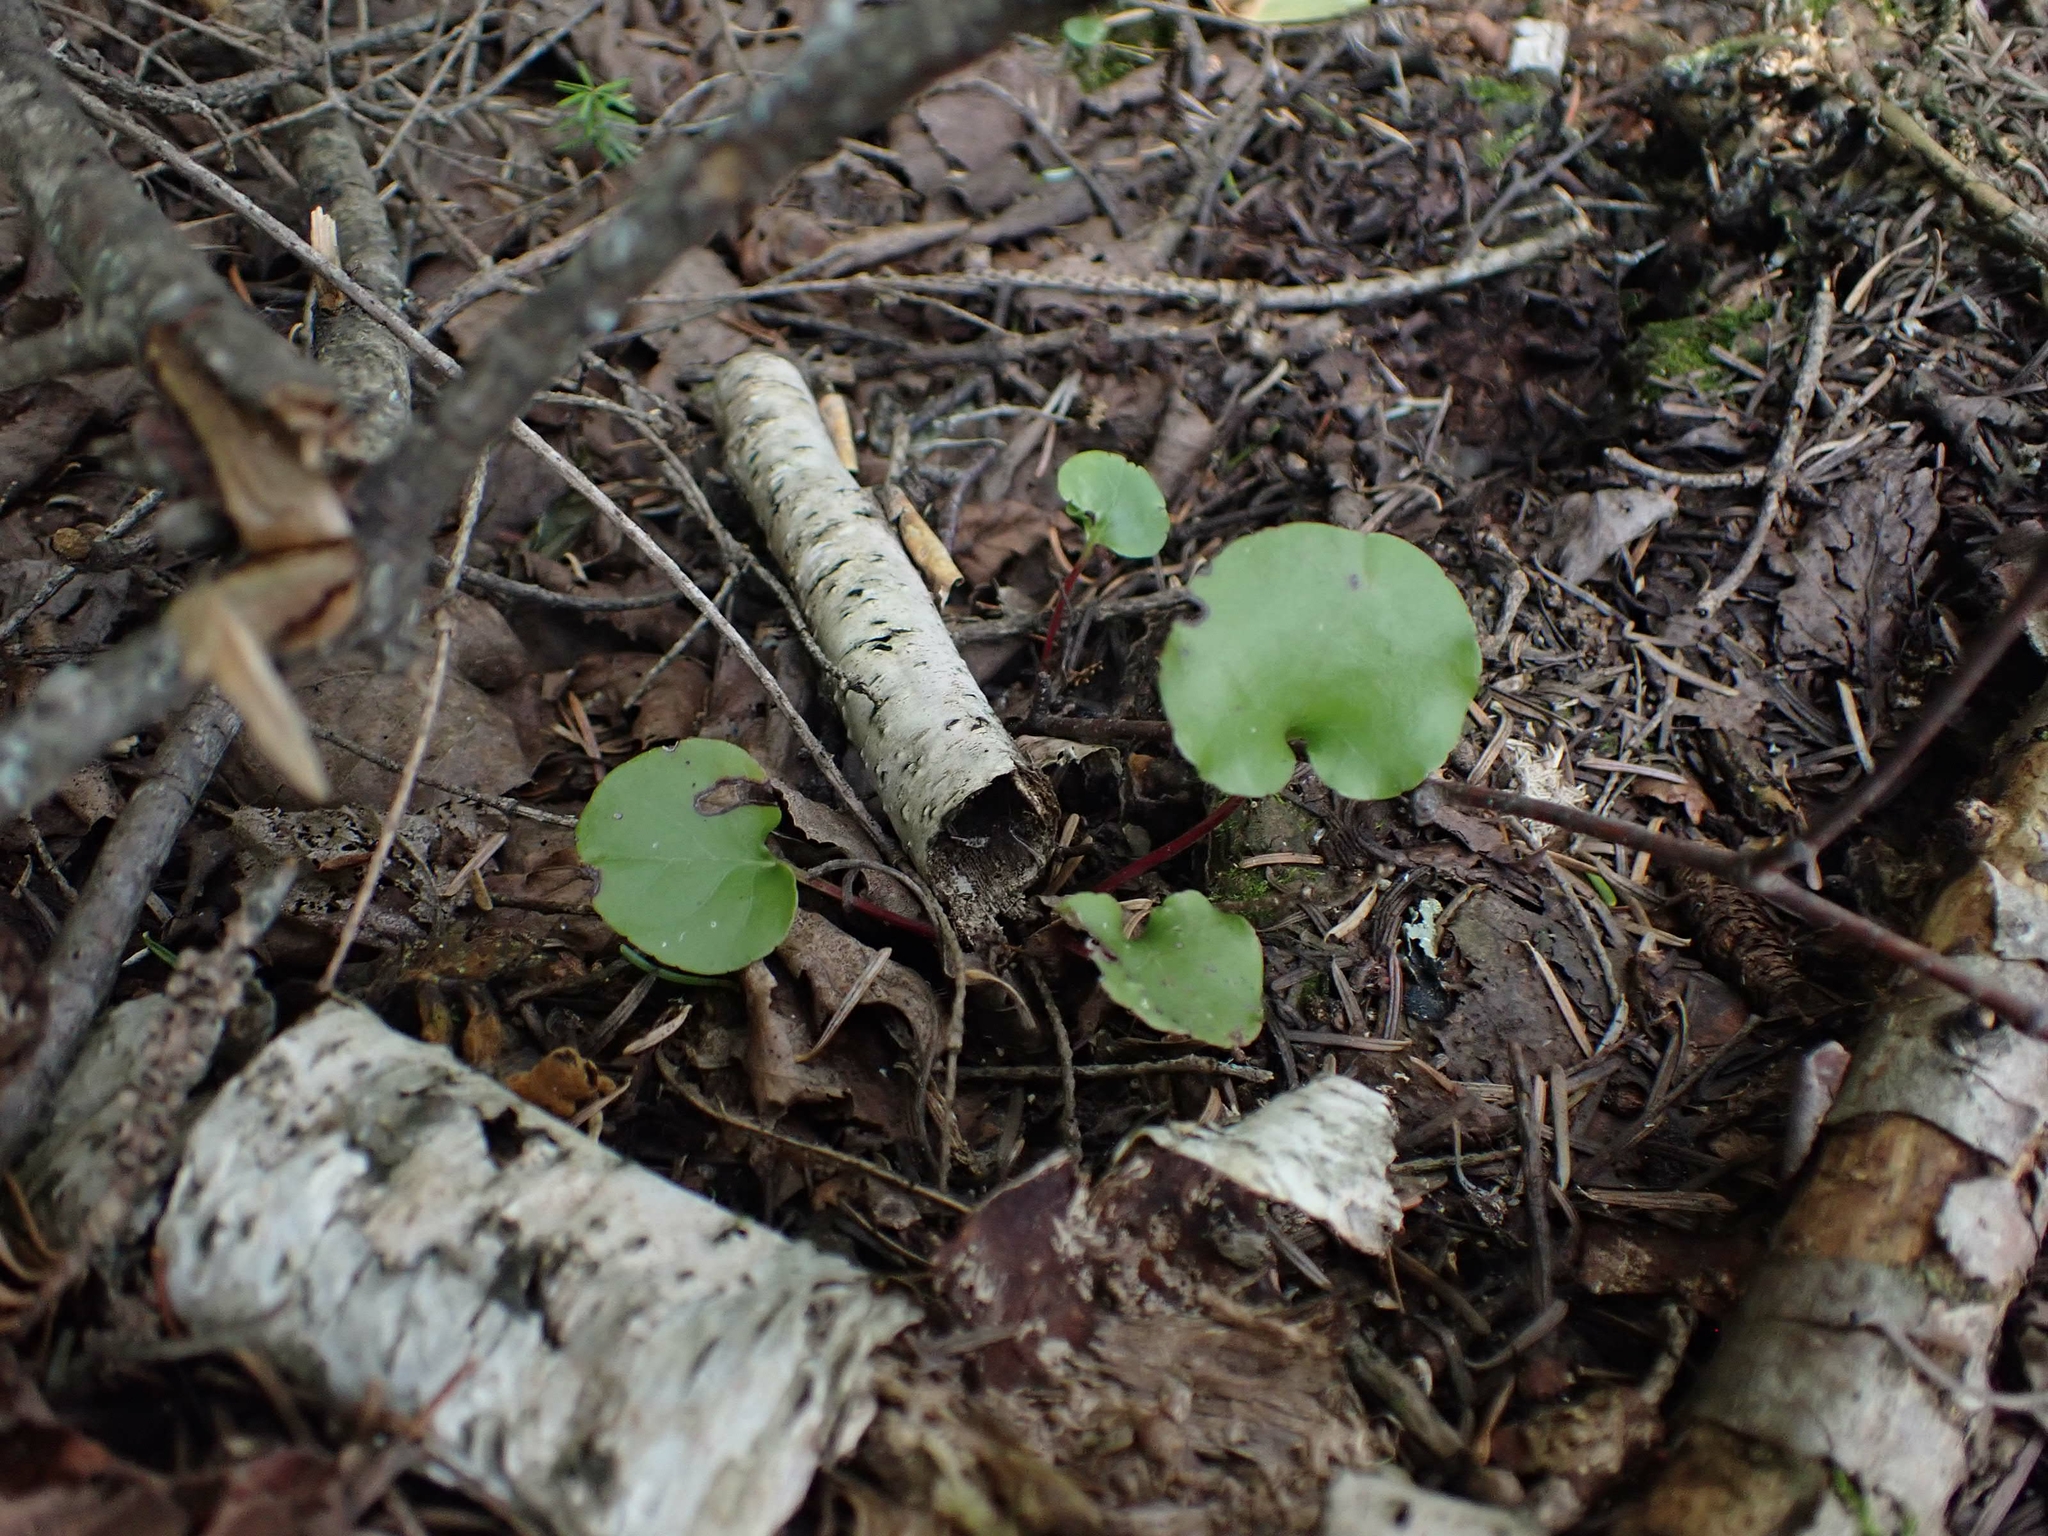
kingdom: Plantae
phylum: Tracheophyta
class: Magnoliopsida
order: Ericales
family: Ericaceae
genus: Pyrola
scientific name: Pyrola asarifolia
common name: Bog wintergreen
